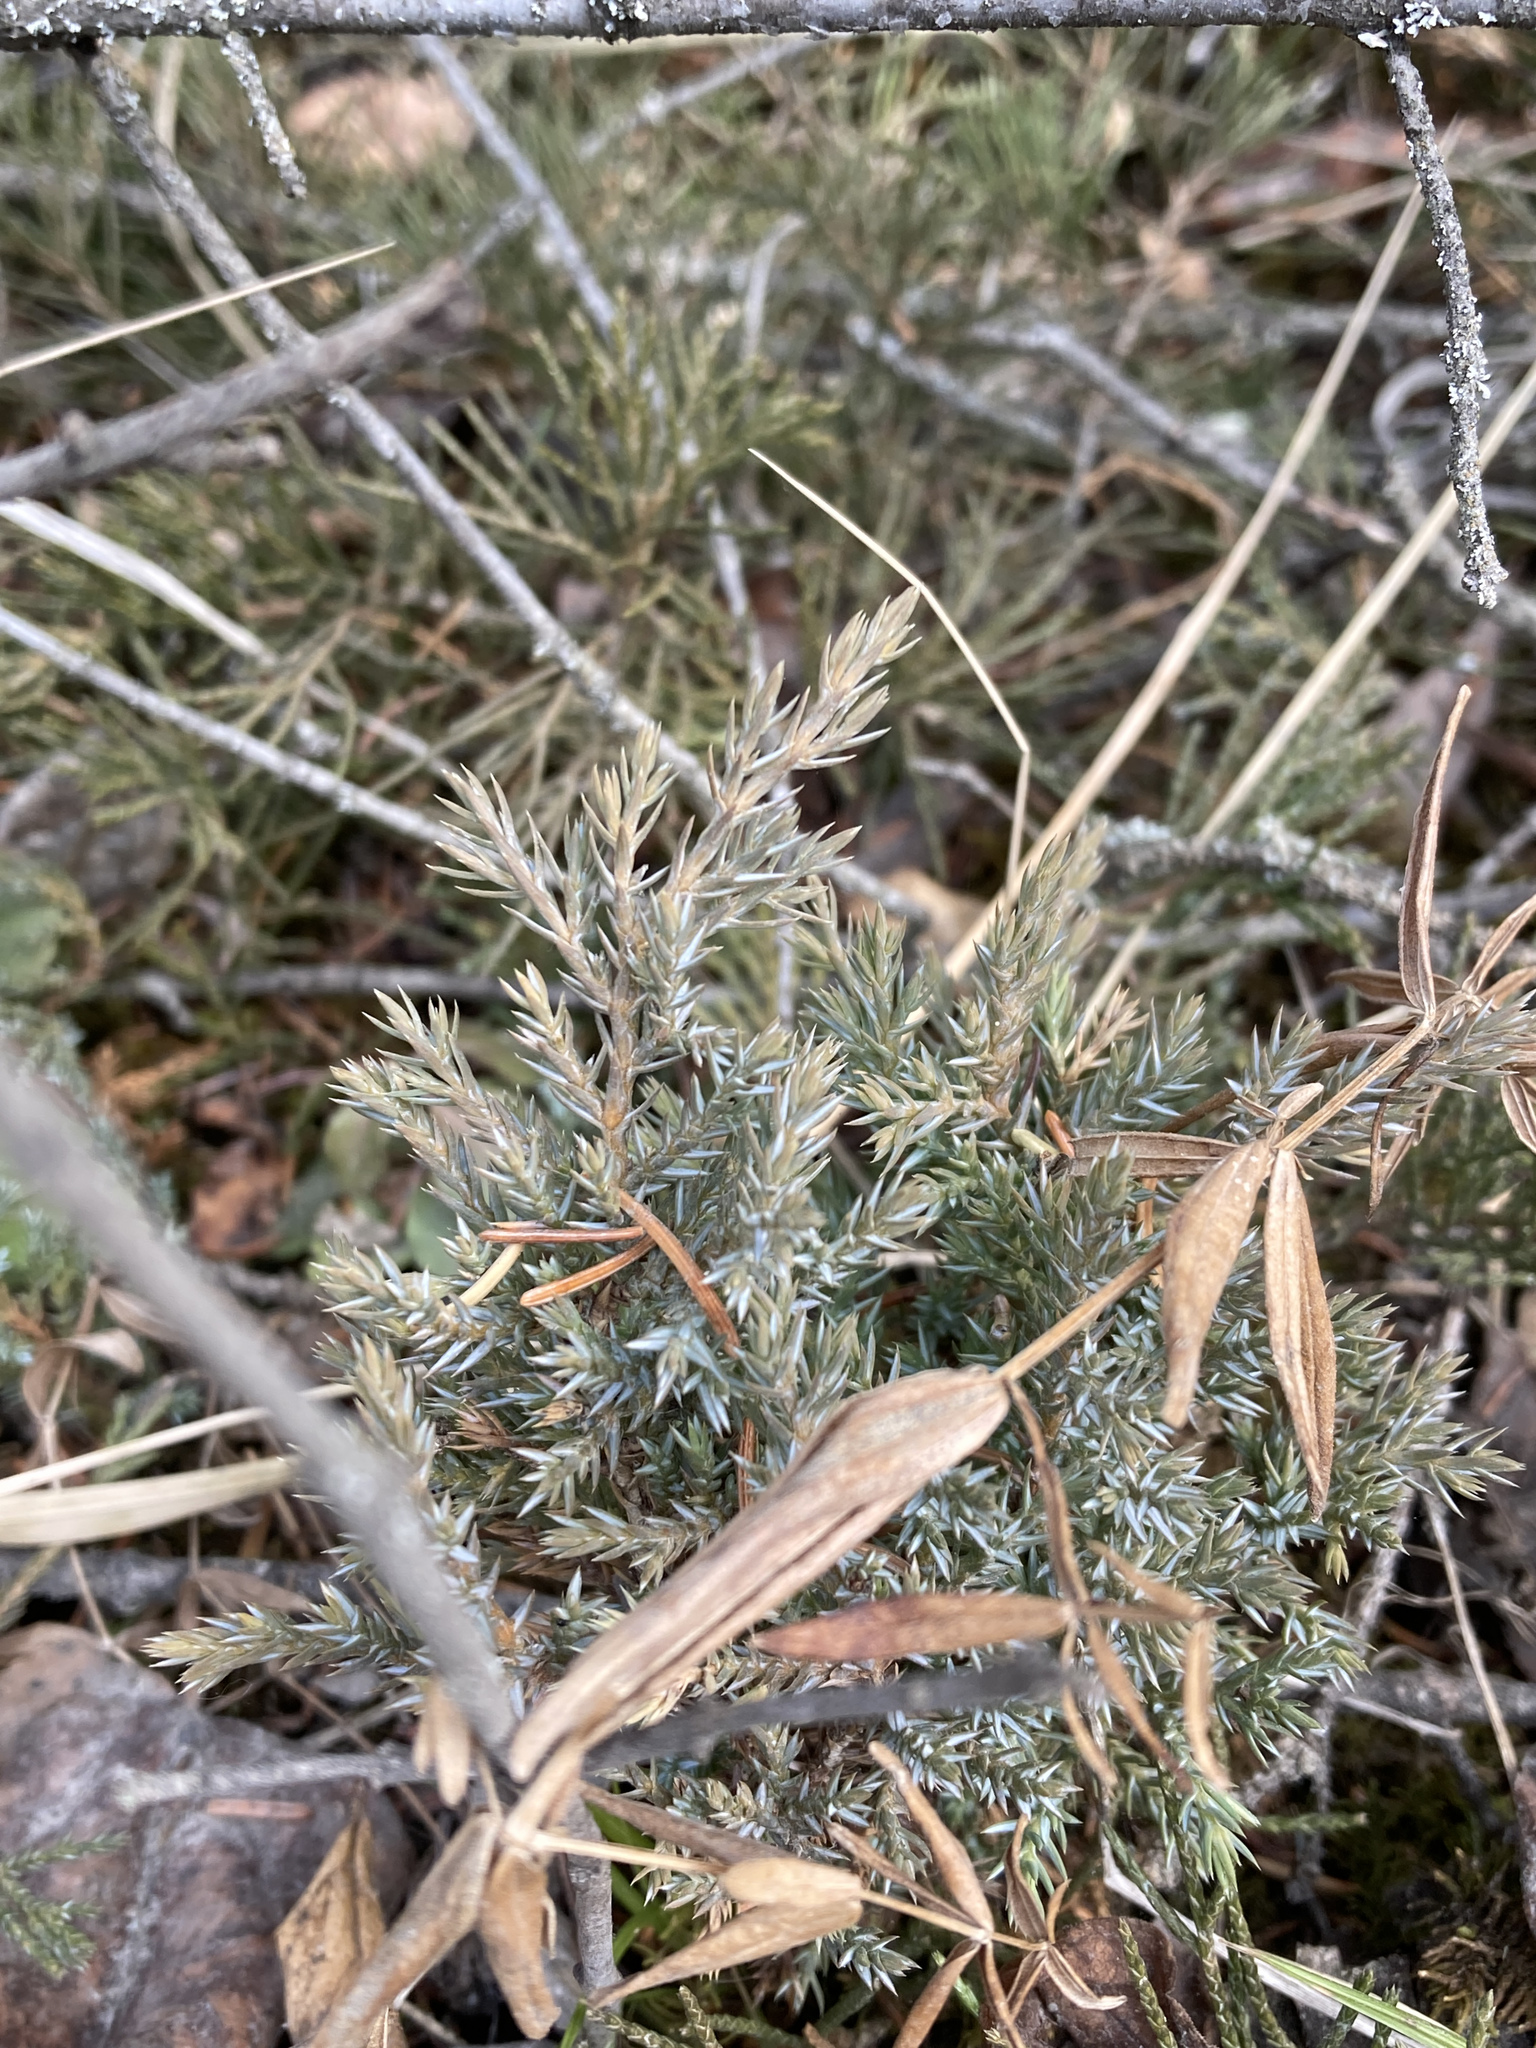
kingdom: Plantae
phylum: Tracheophyta
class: Pinopsida
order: Pinales
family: Cupressaceae
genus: Juniperus
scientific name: Juniperus communis
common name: Common juniper
